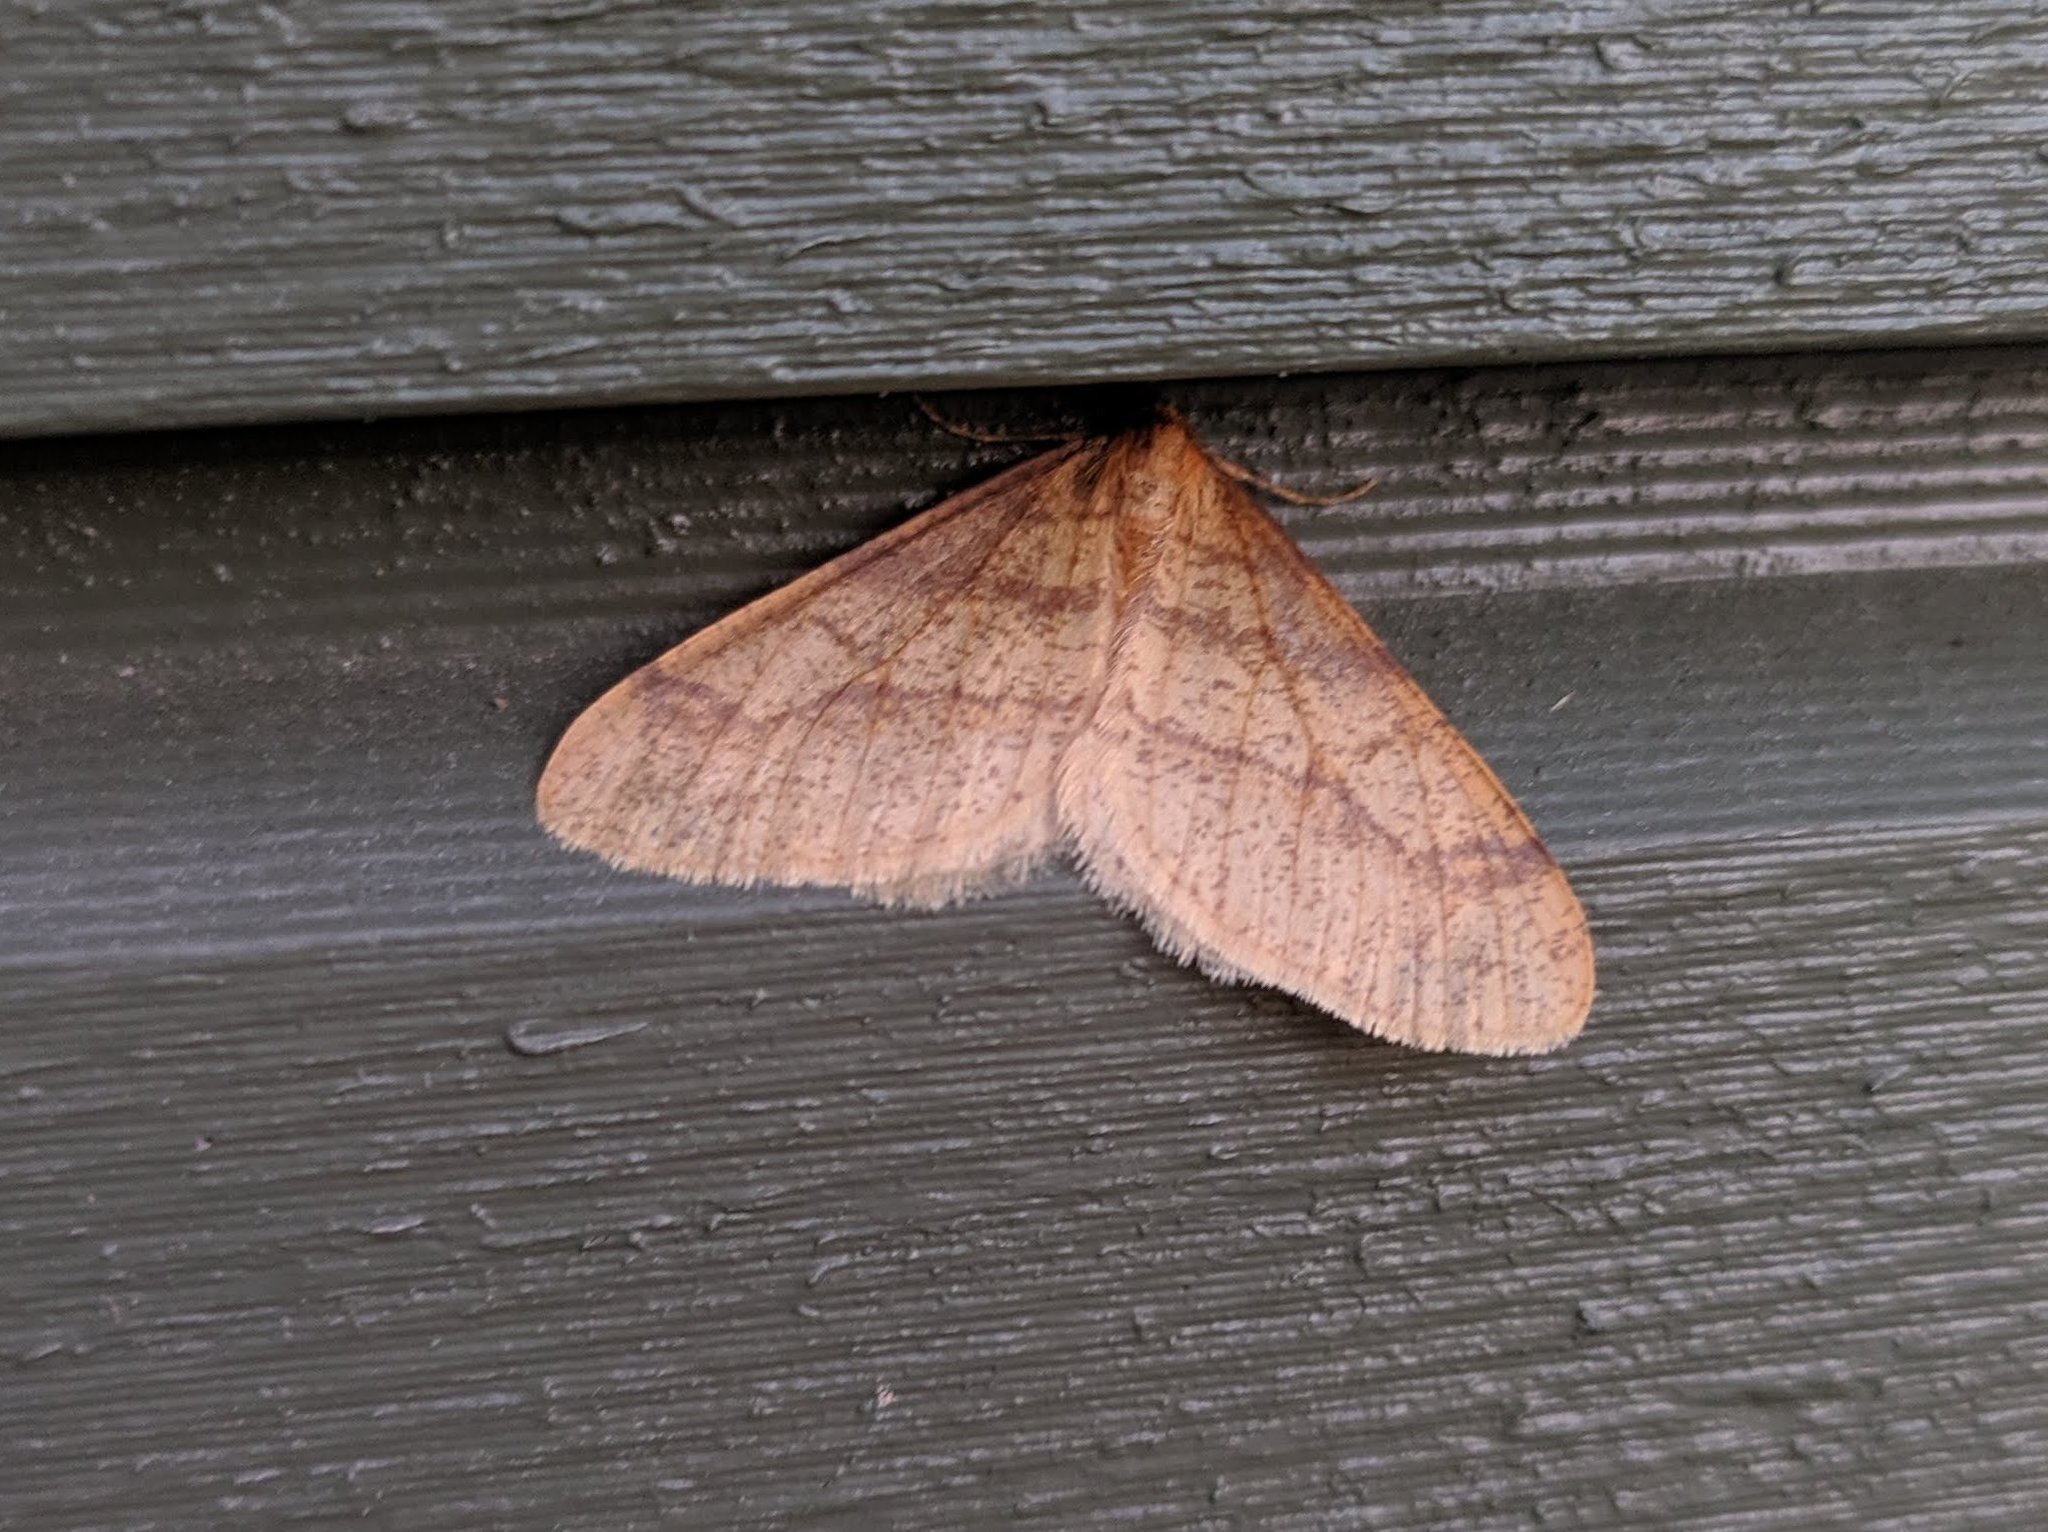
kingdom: Animalia
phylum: Arthropoda
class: Insecta
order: Lepidoptera
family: Geometridae
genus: Agriopis
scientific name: Agriopis aurantiaria
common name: Scarce umber
